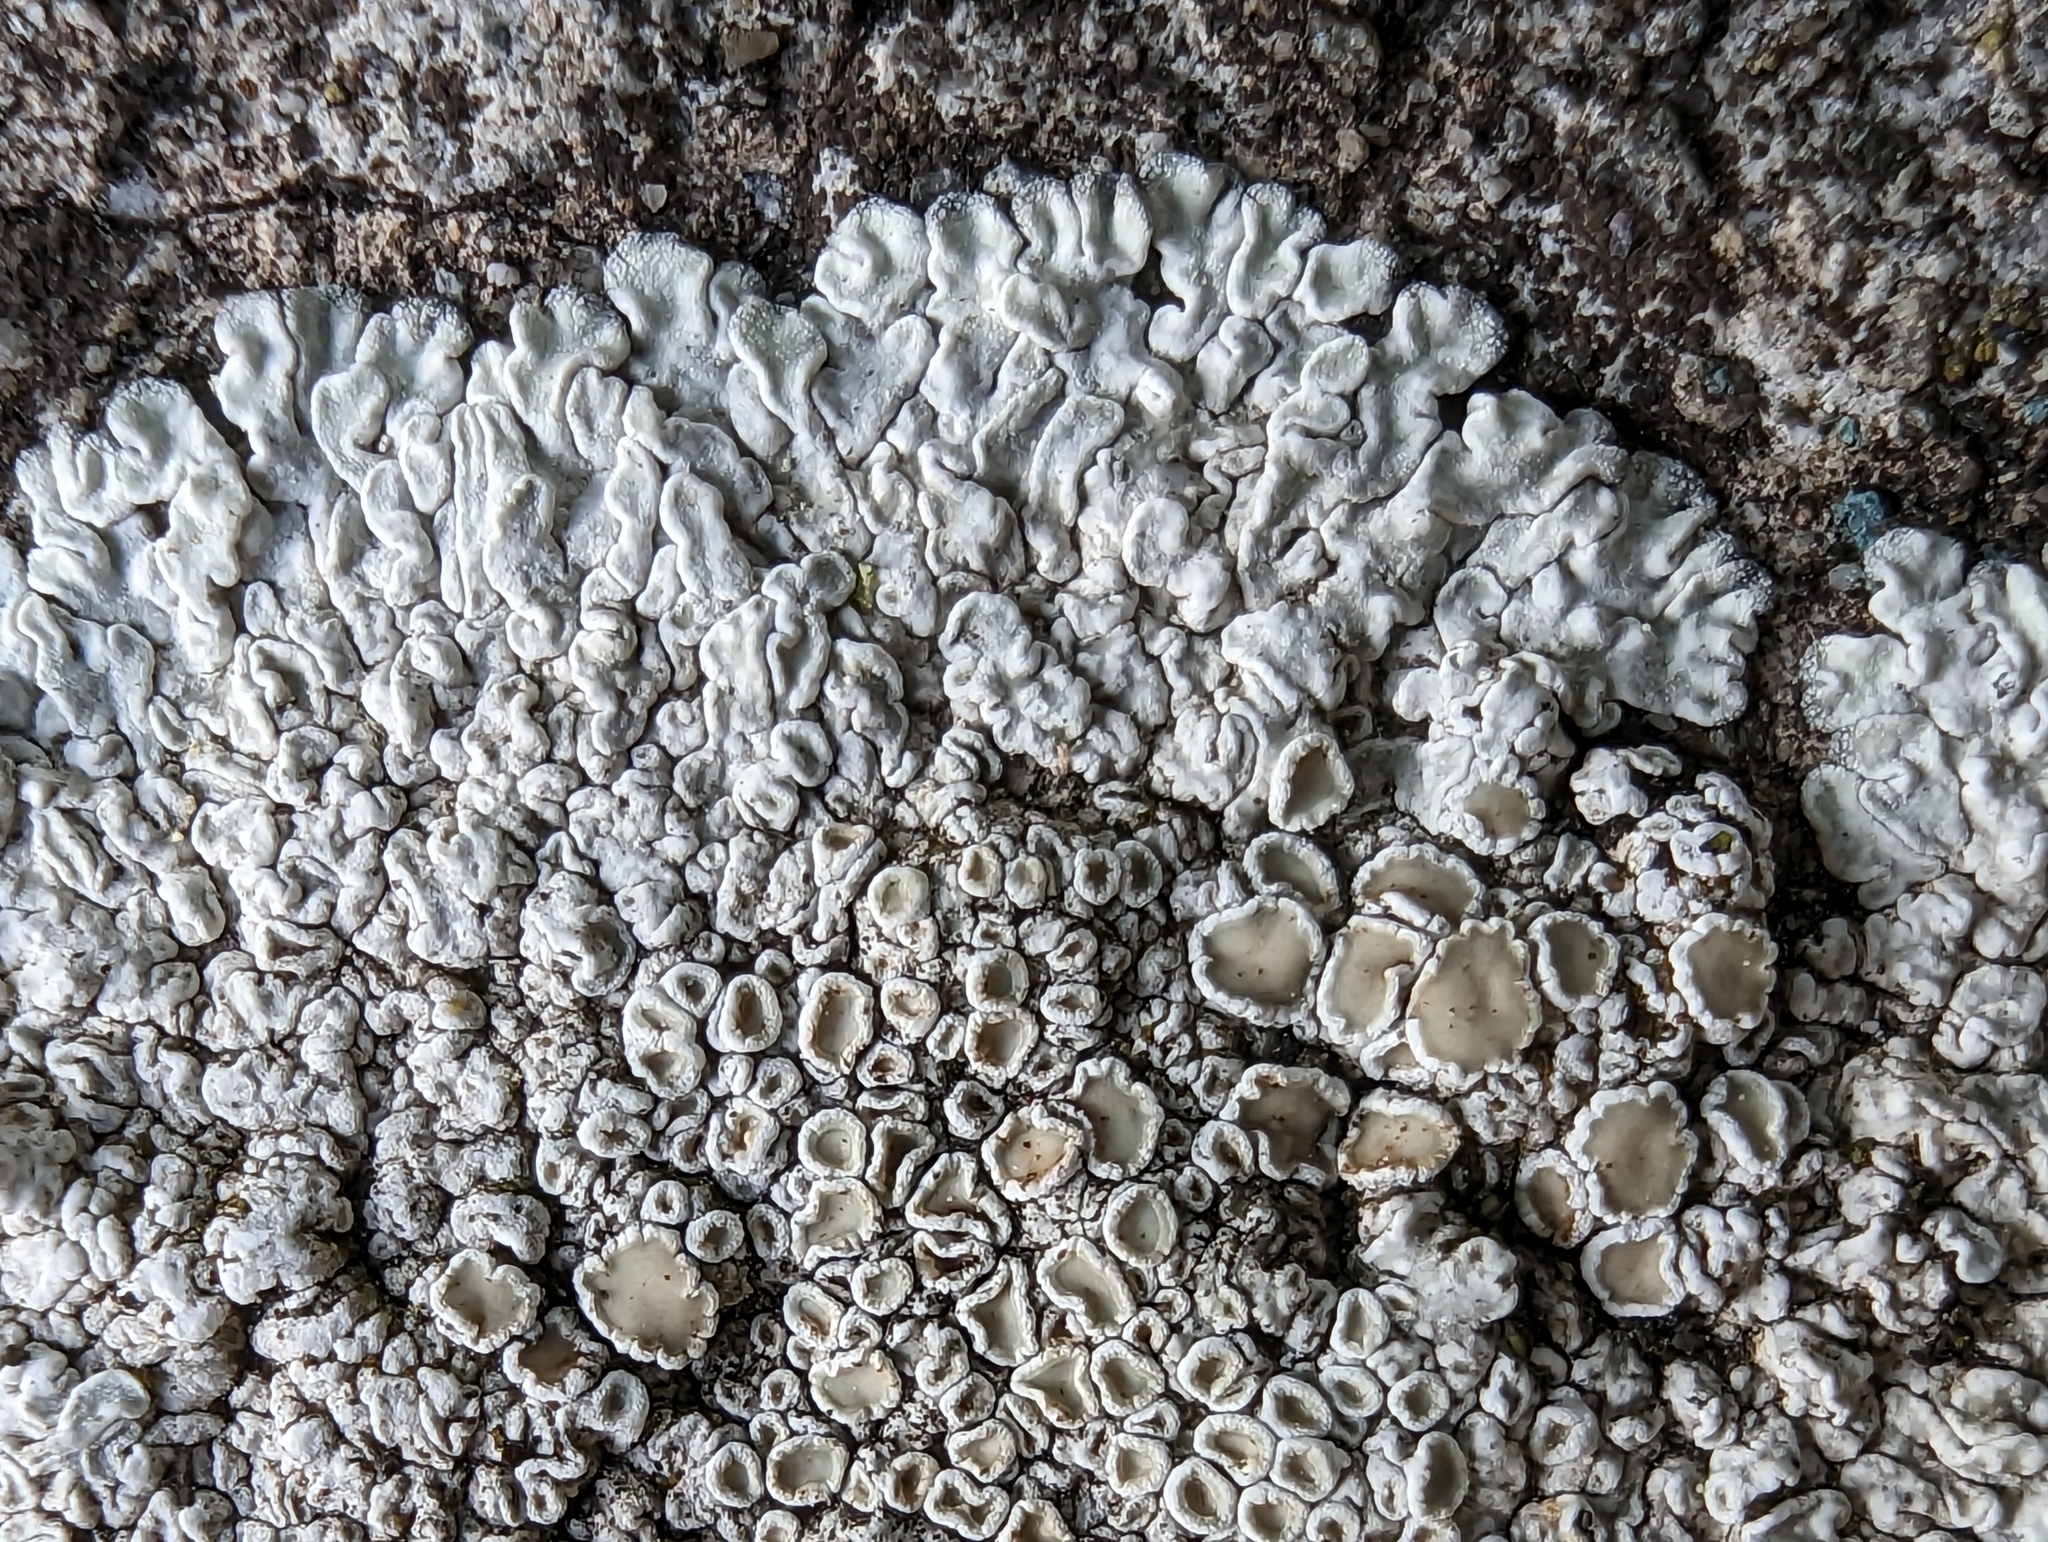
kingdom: Fungi
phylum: Ascomycota
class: Lecanoromycetes
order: Lecanorales
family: Lecanoraceae
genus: Protoparmeliopsis
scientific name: Protoparmeliopsis muralis
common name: Stonewall rim lichen
